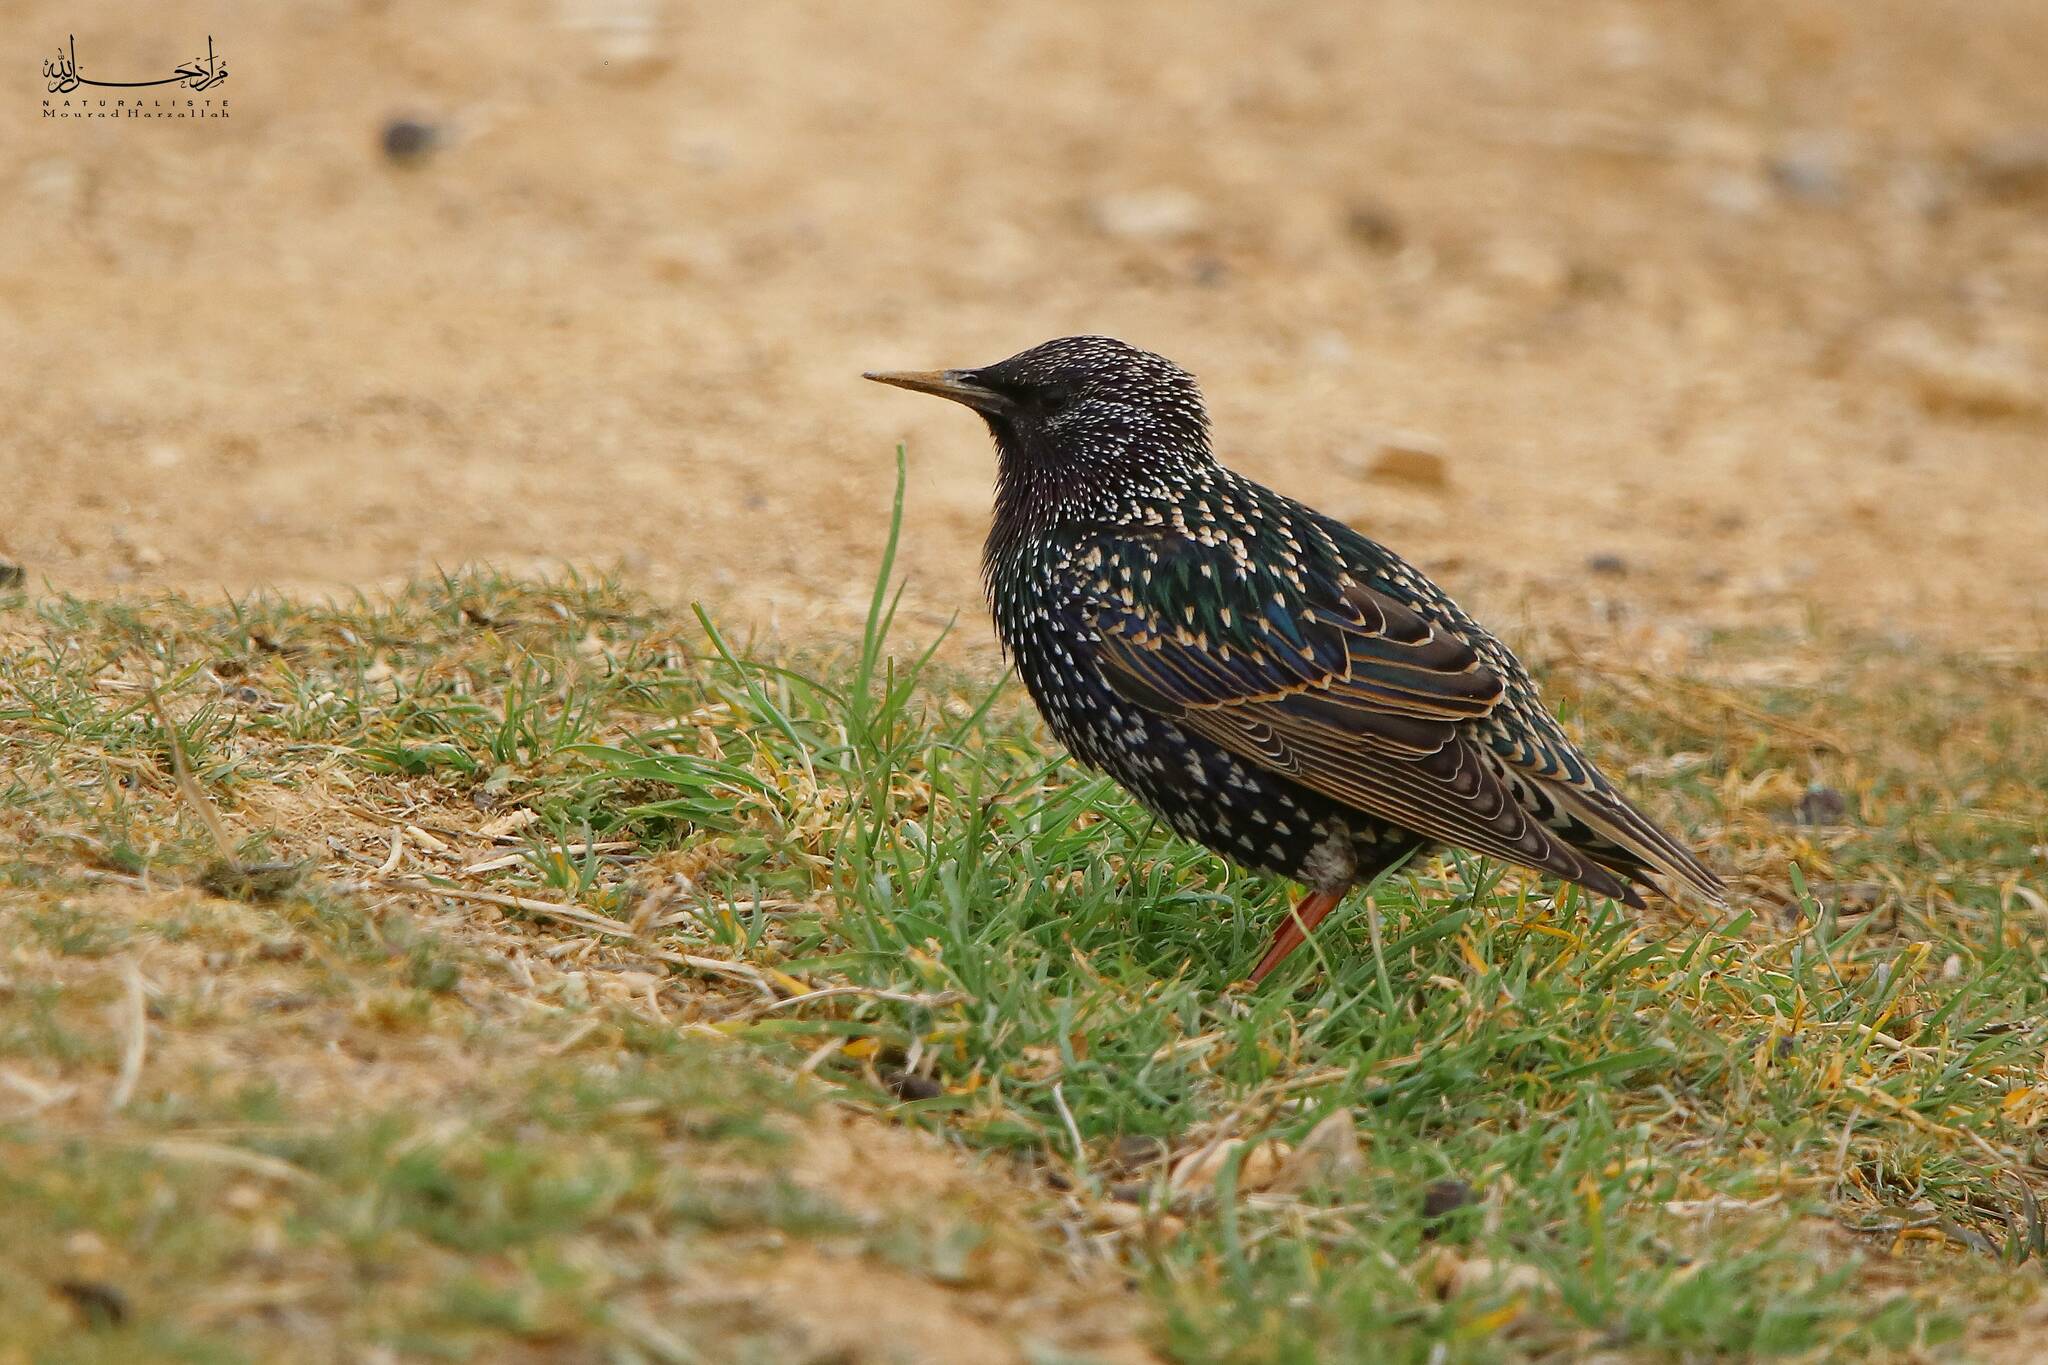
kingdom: Animalia
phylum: Chordata
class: Aves
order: Passeriformes
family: Sturnidae
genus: Sturnus
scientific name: Sturnus vulgaris
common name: Common starling
